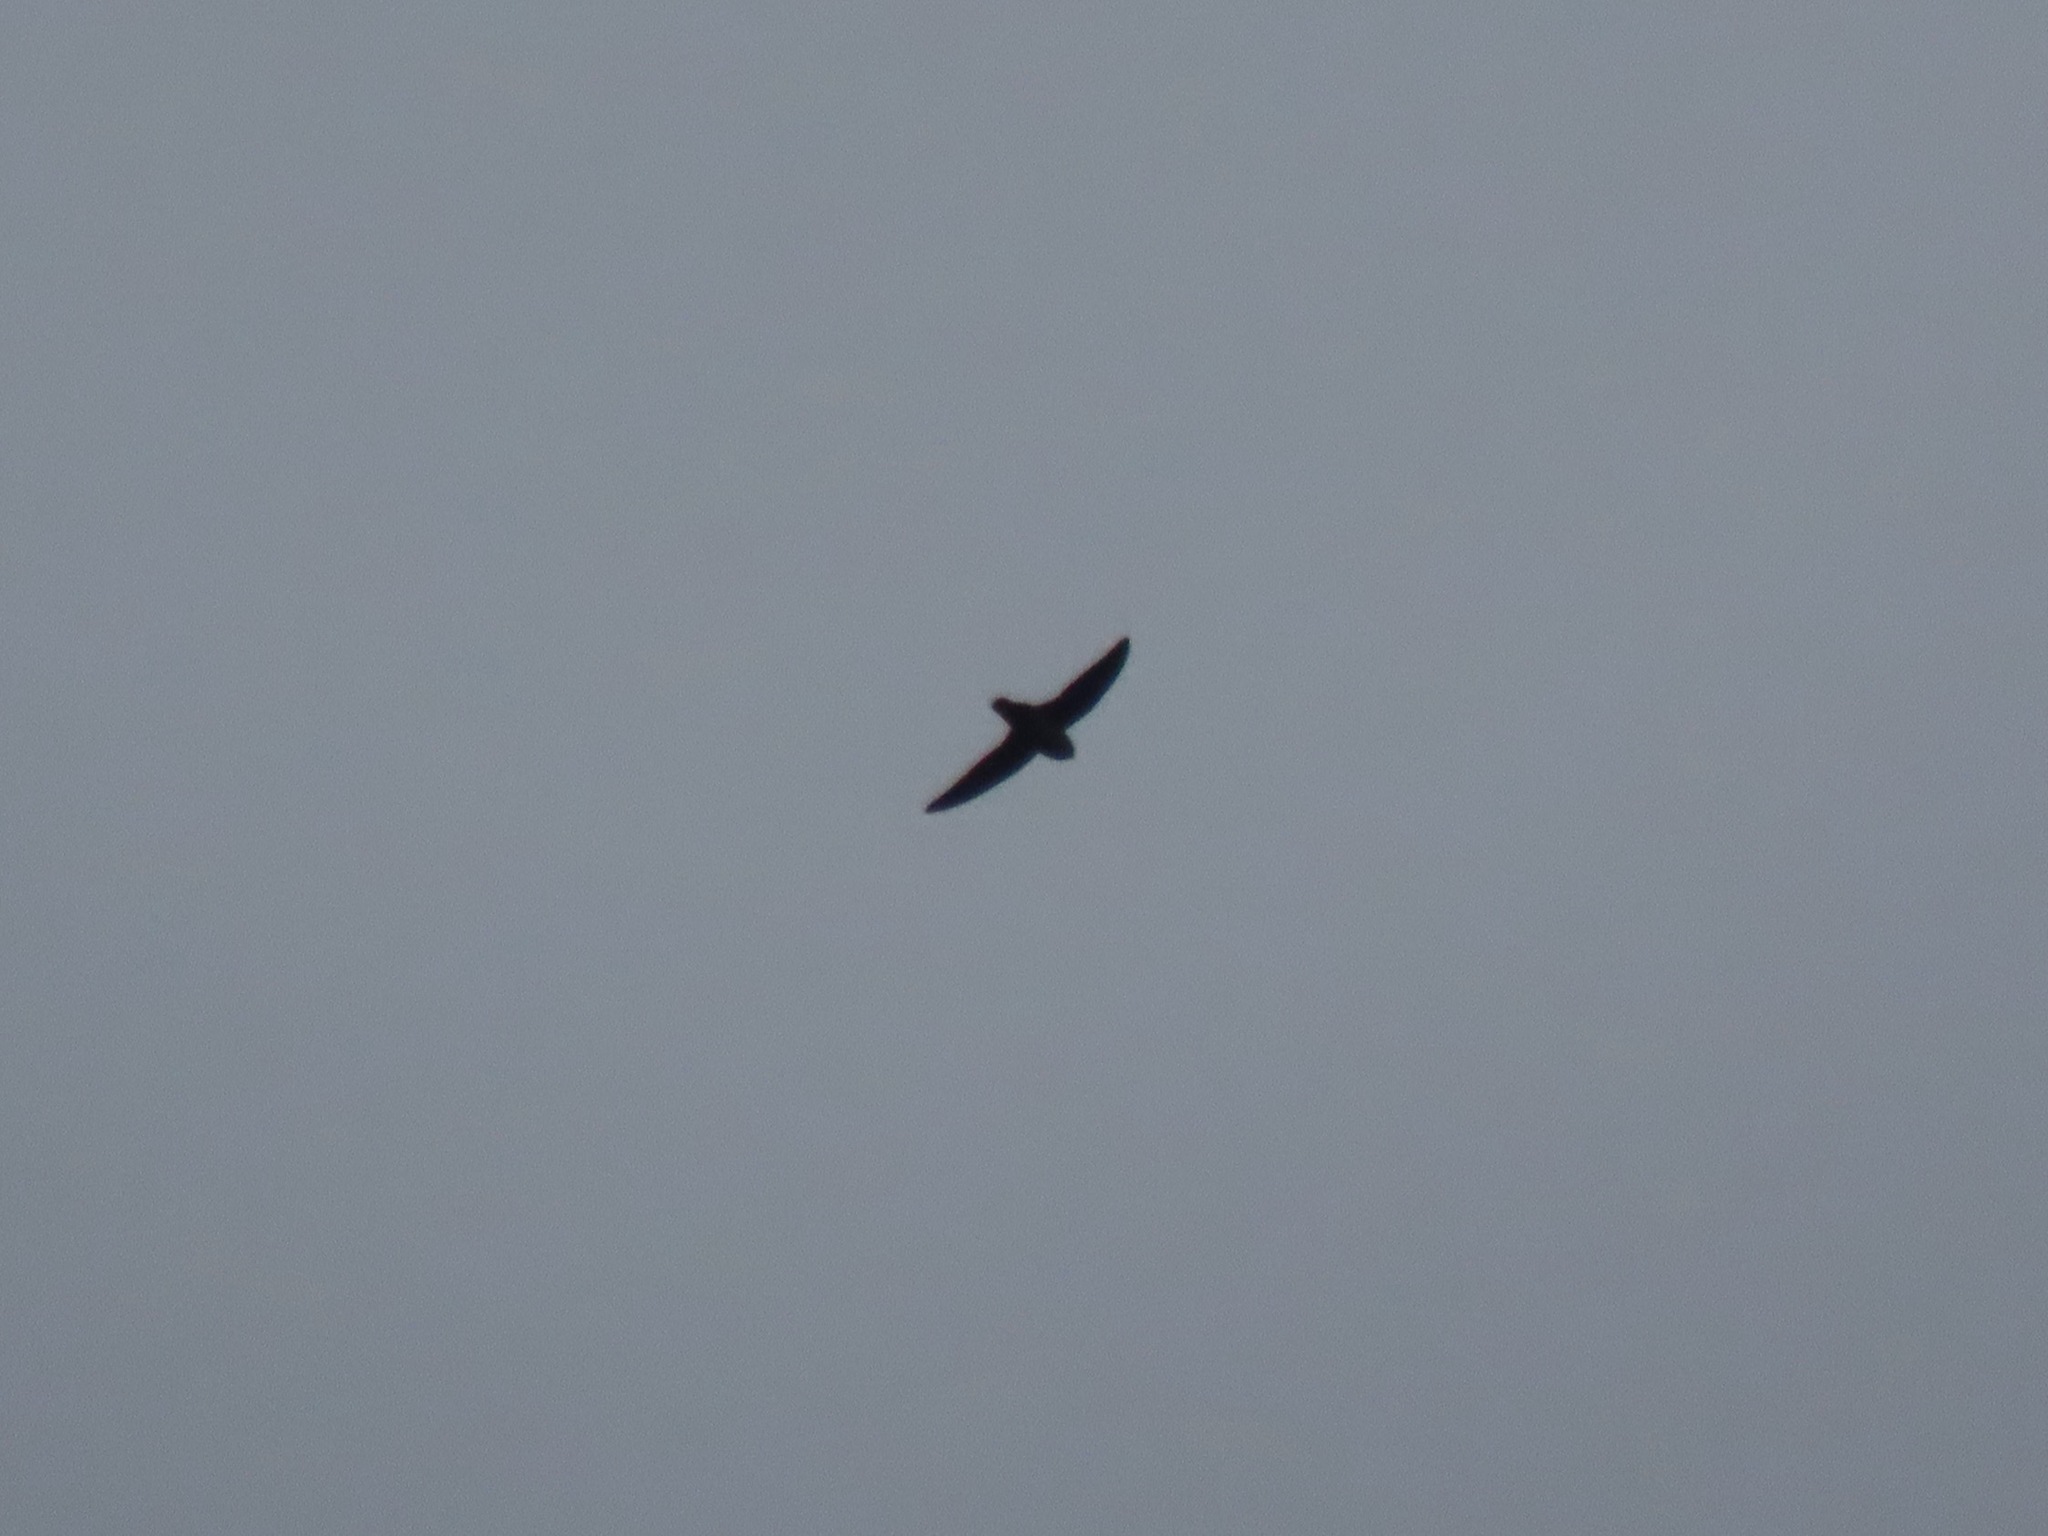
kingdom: Animalia
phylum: Chordata
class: Aves
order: Apodiformes
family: Apodidae
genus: Chaetura
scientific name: Chaetura vauxi
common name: Vaux's swift
